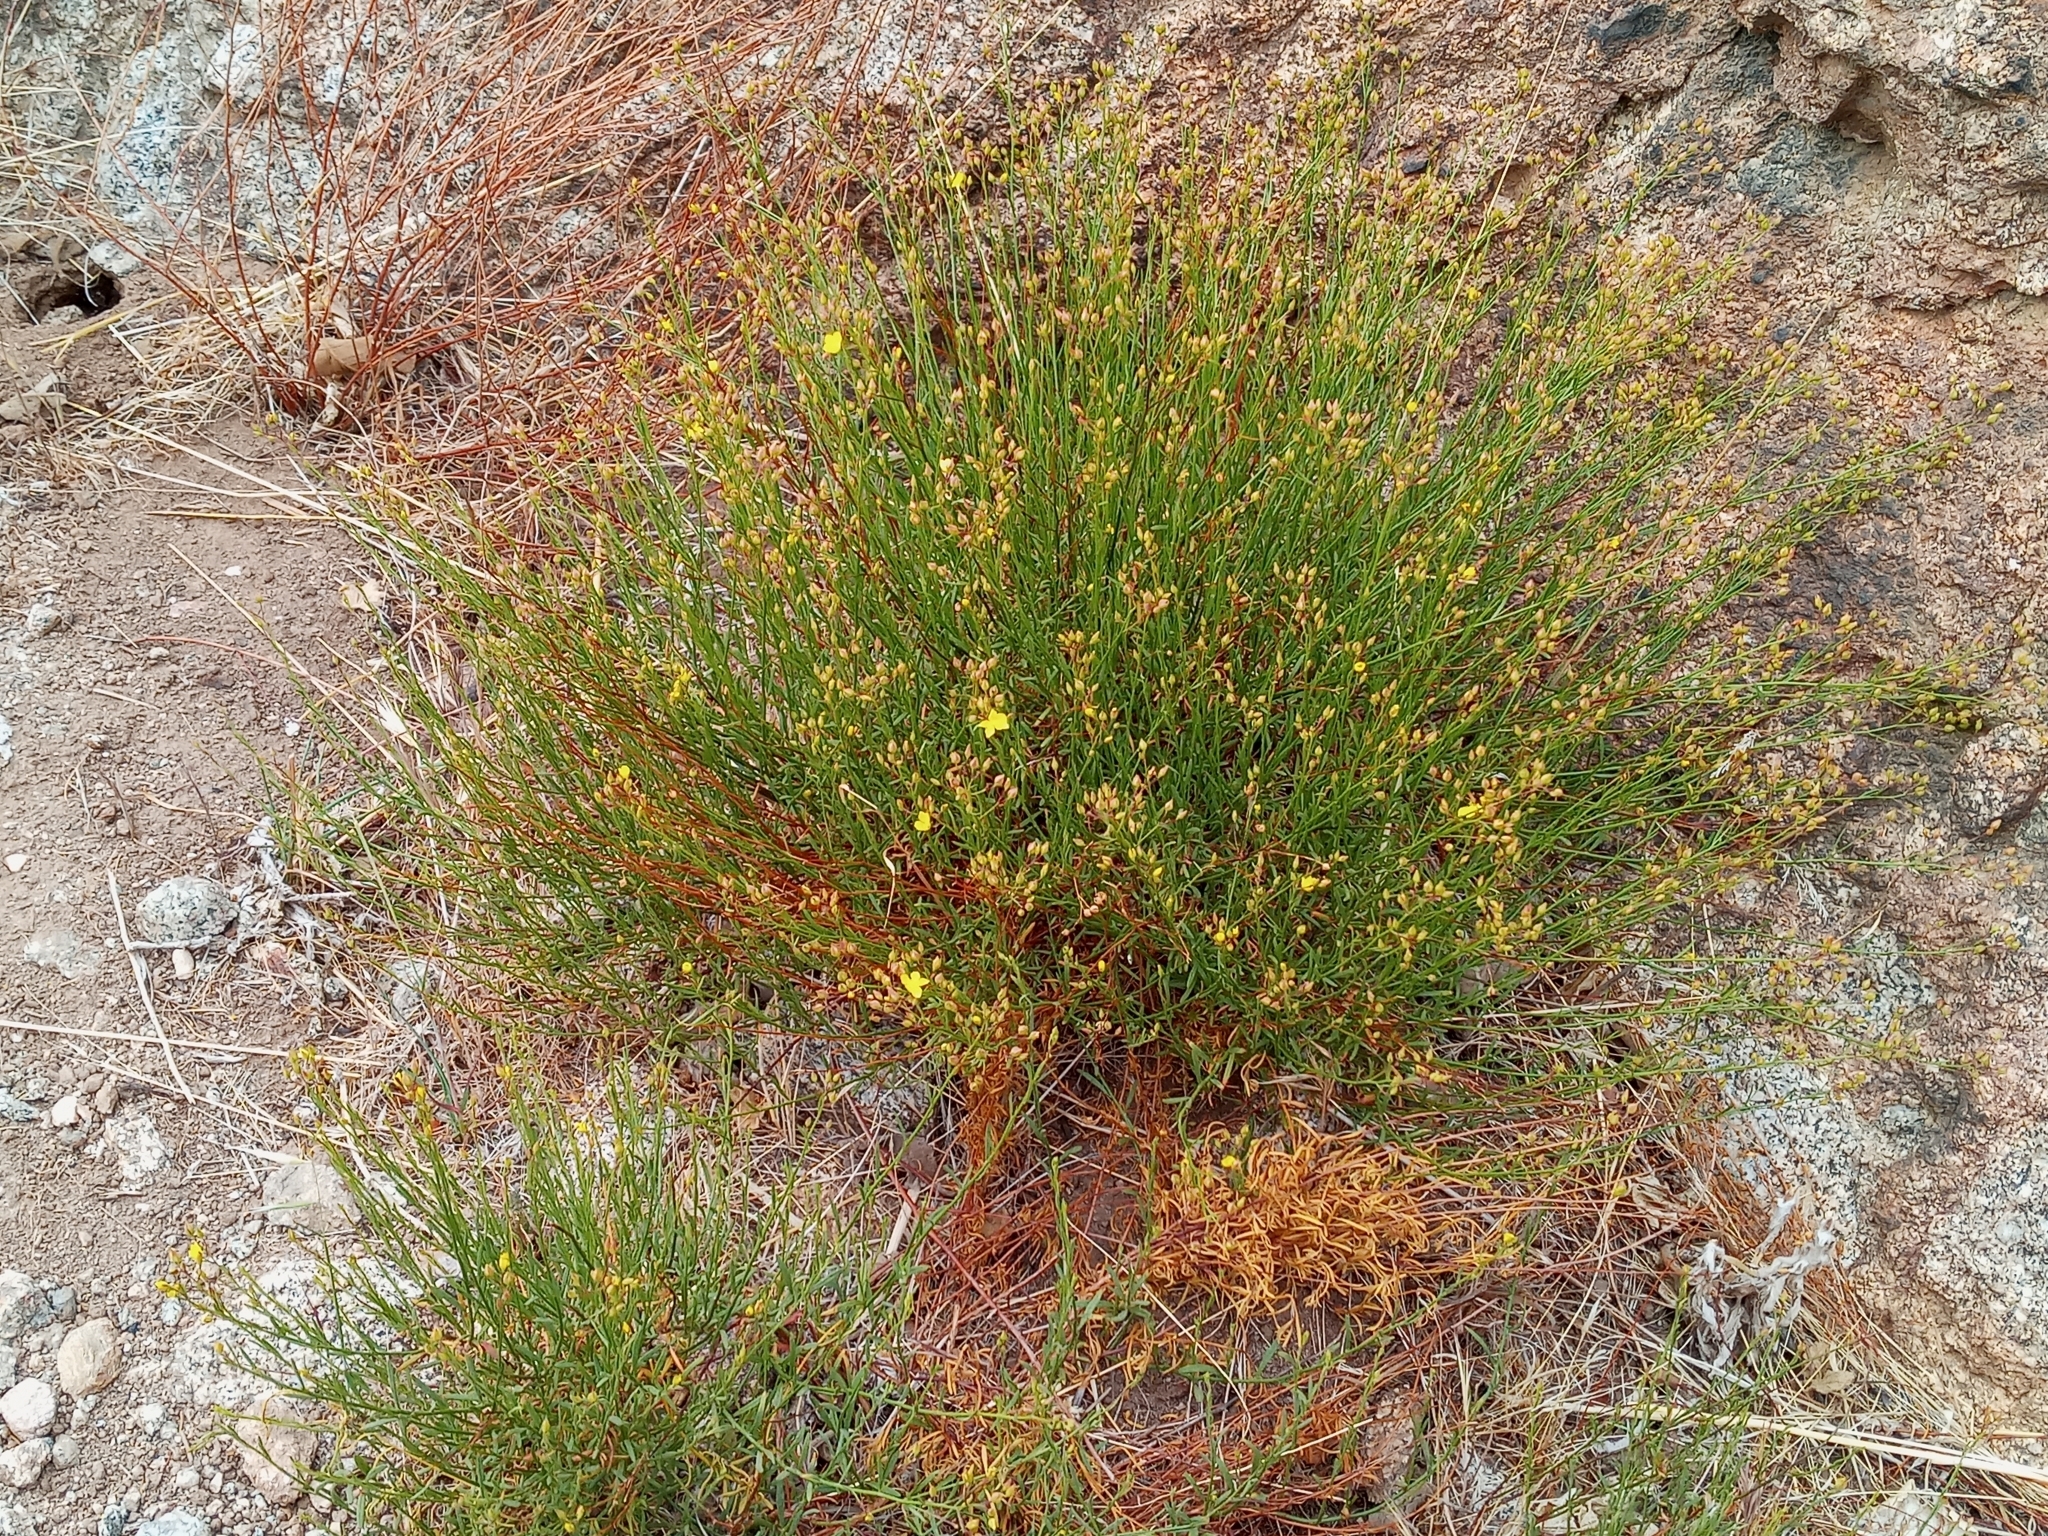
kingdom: Plantae
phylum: Tracheophyta
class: Magnoliopsida
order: Malvales
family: Cistaceae
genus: Crocanthemum
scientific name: Crocanthemum scoparium
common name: Broom-rose
